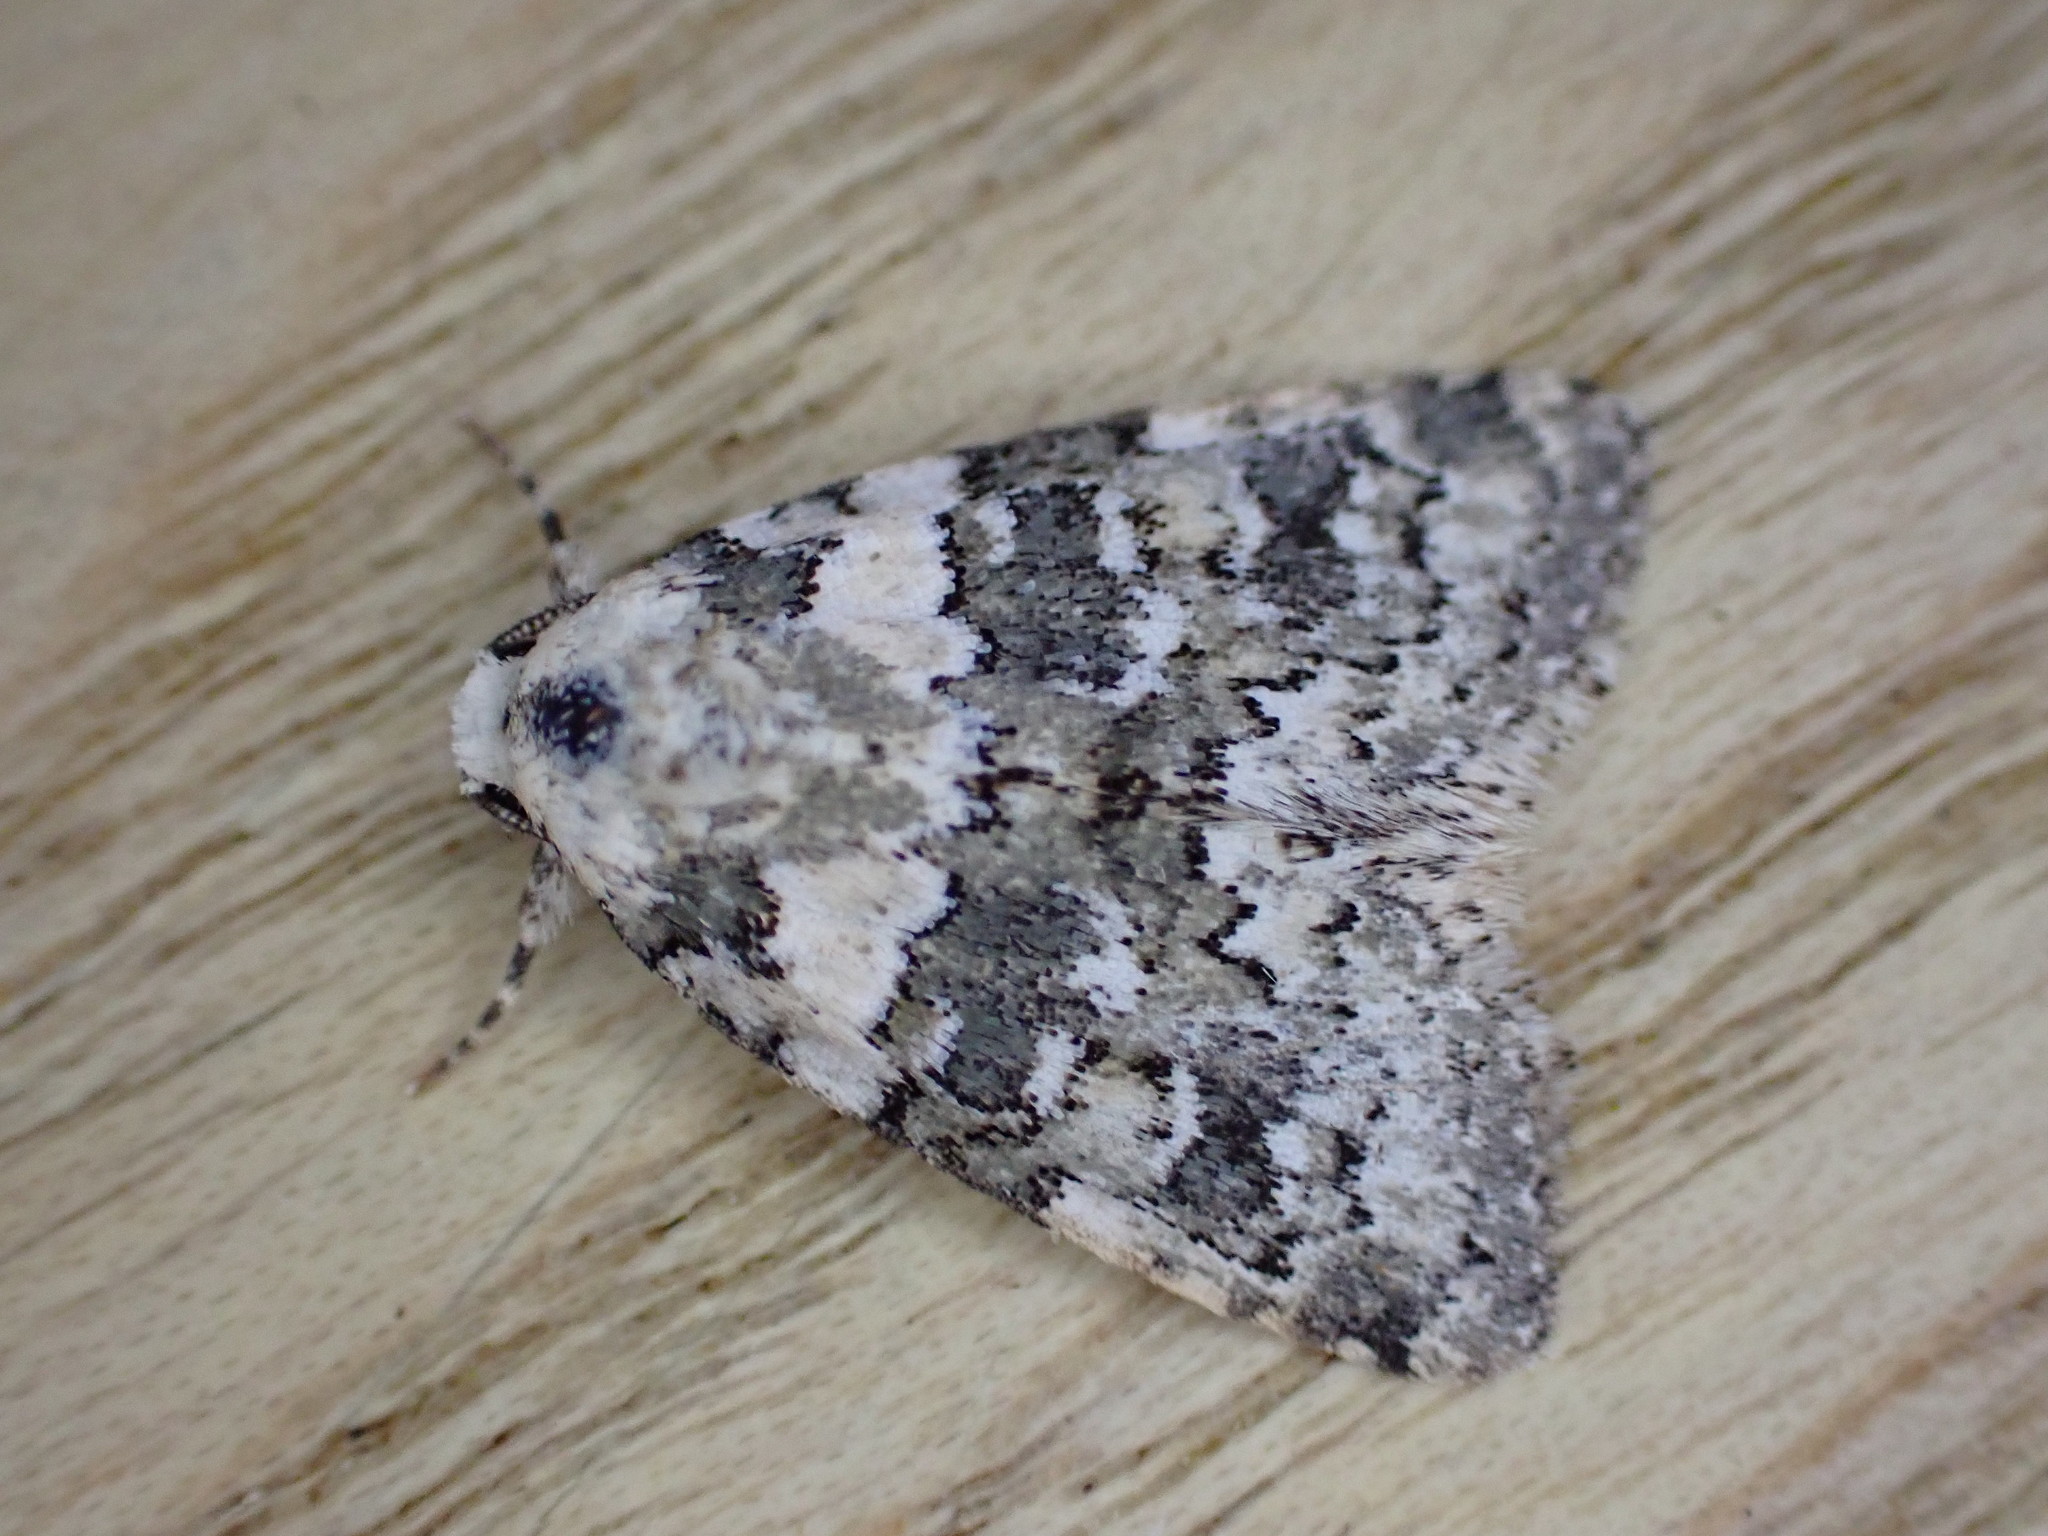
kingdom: Animalia
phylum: Arthropoda
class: Insecta
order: Lepidoptera
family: Noctuidae
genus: Bryophila
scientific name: Bryophila domestica
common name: Marbled beauty
